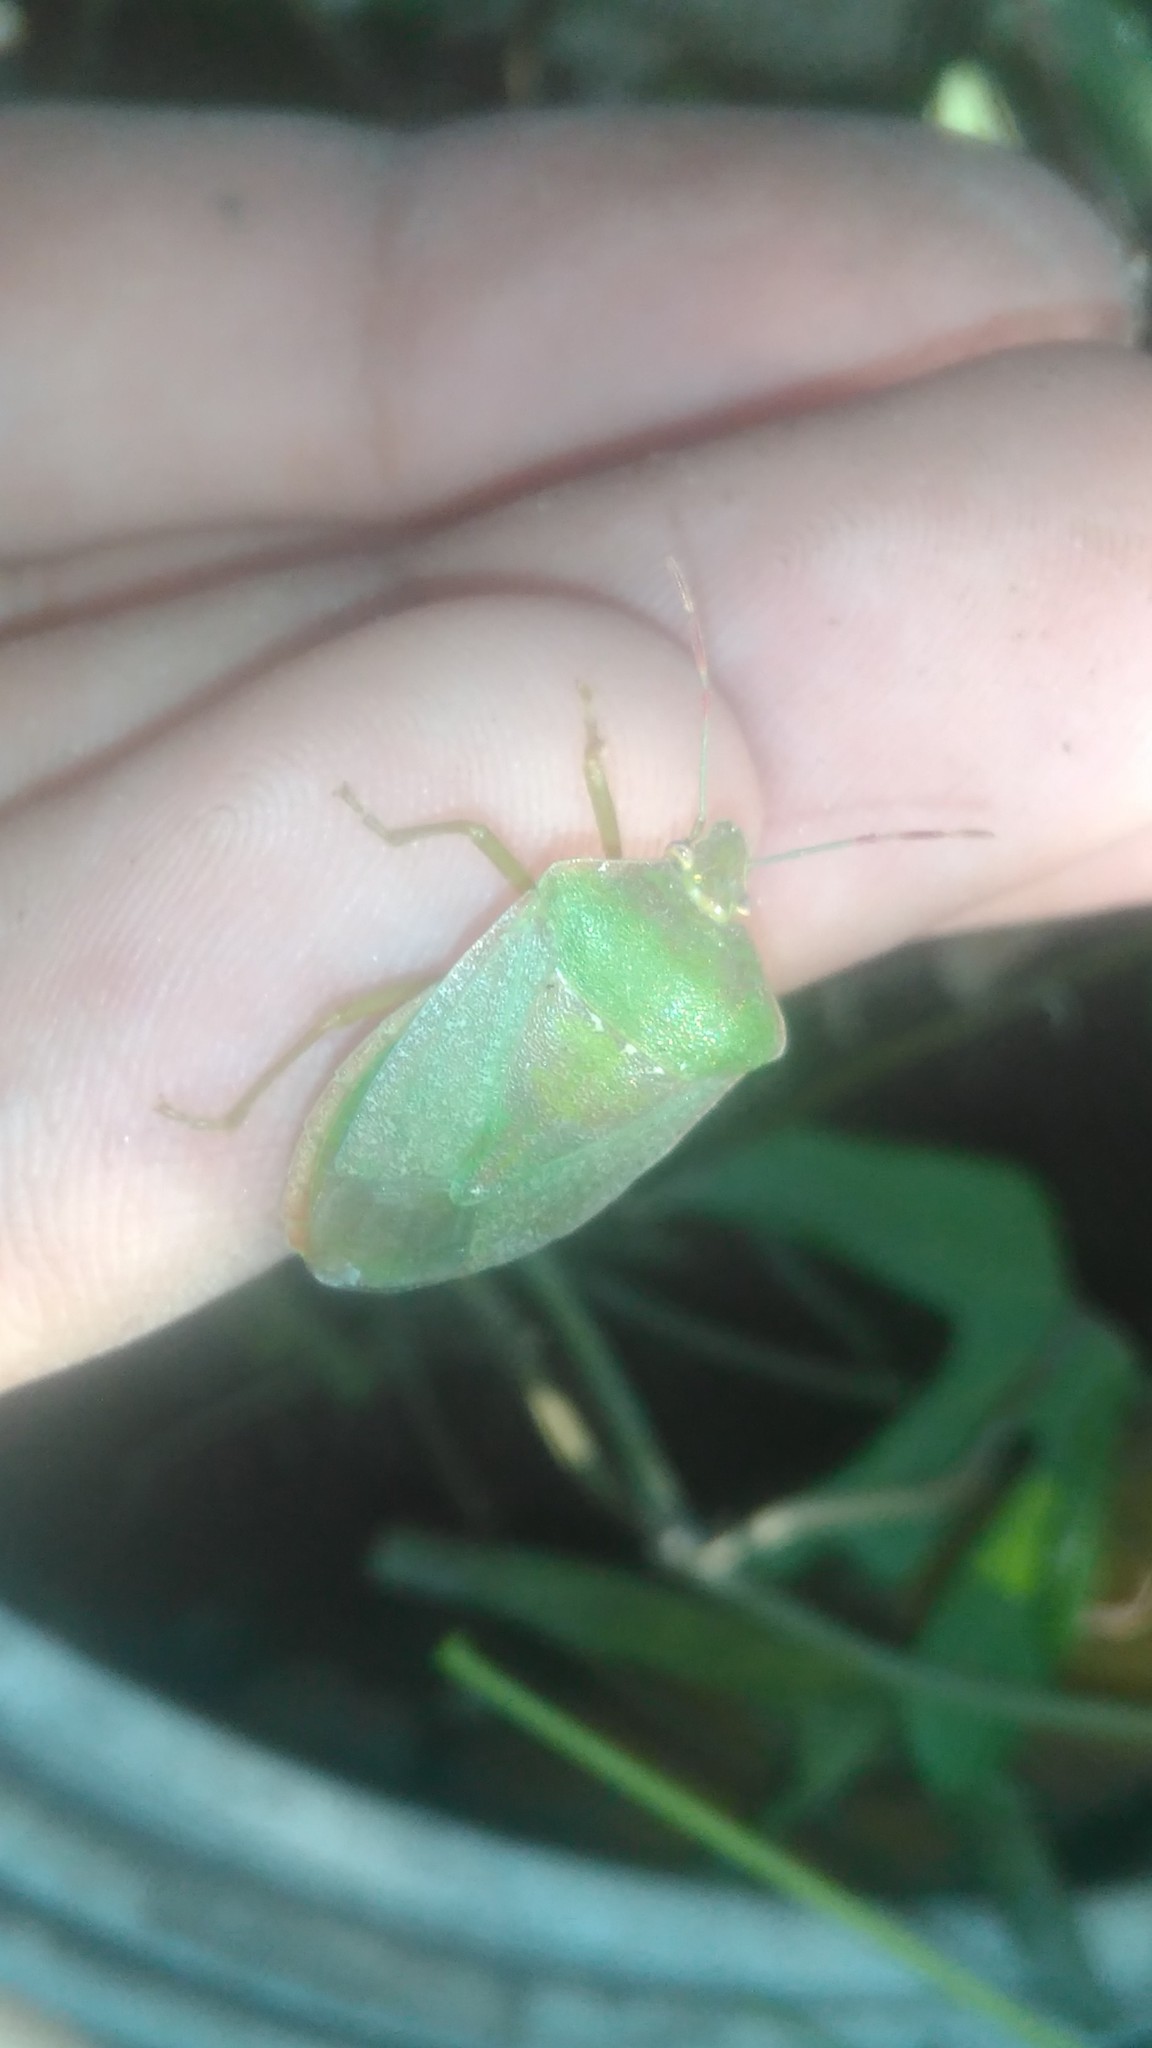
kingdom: Animalia
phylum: Arthropoda
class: Insecta
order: Hemiptera
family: Pentatomidae
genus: Nezara
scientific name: Nezara viridula
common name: Southern green stink bug
